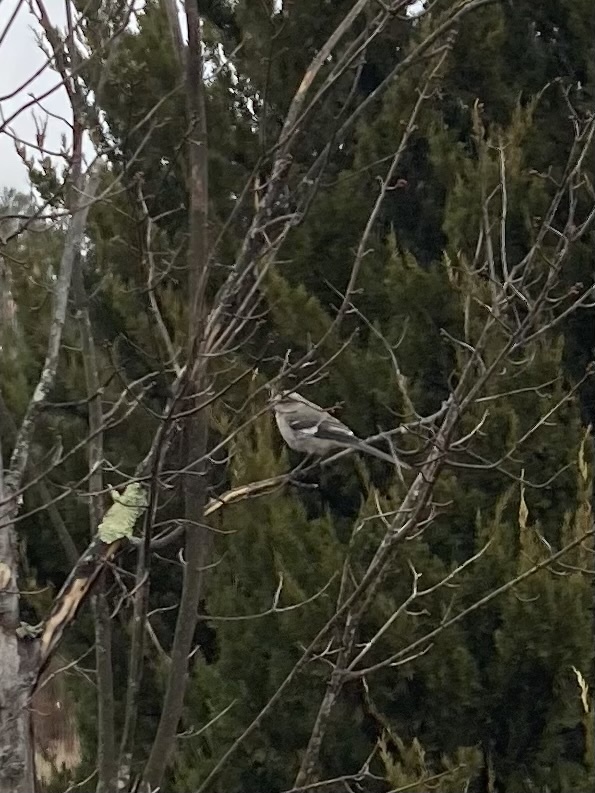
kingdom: Animalia
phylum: Chordata
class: Aves
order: Passeriformes
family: Mimidae
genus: Mimus
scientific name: Mimus polyglottos
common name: Northern mockingbird
